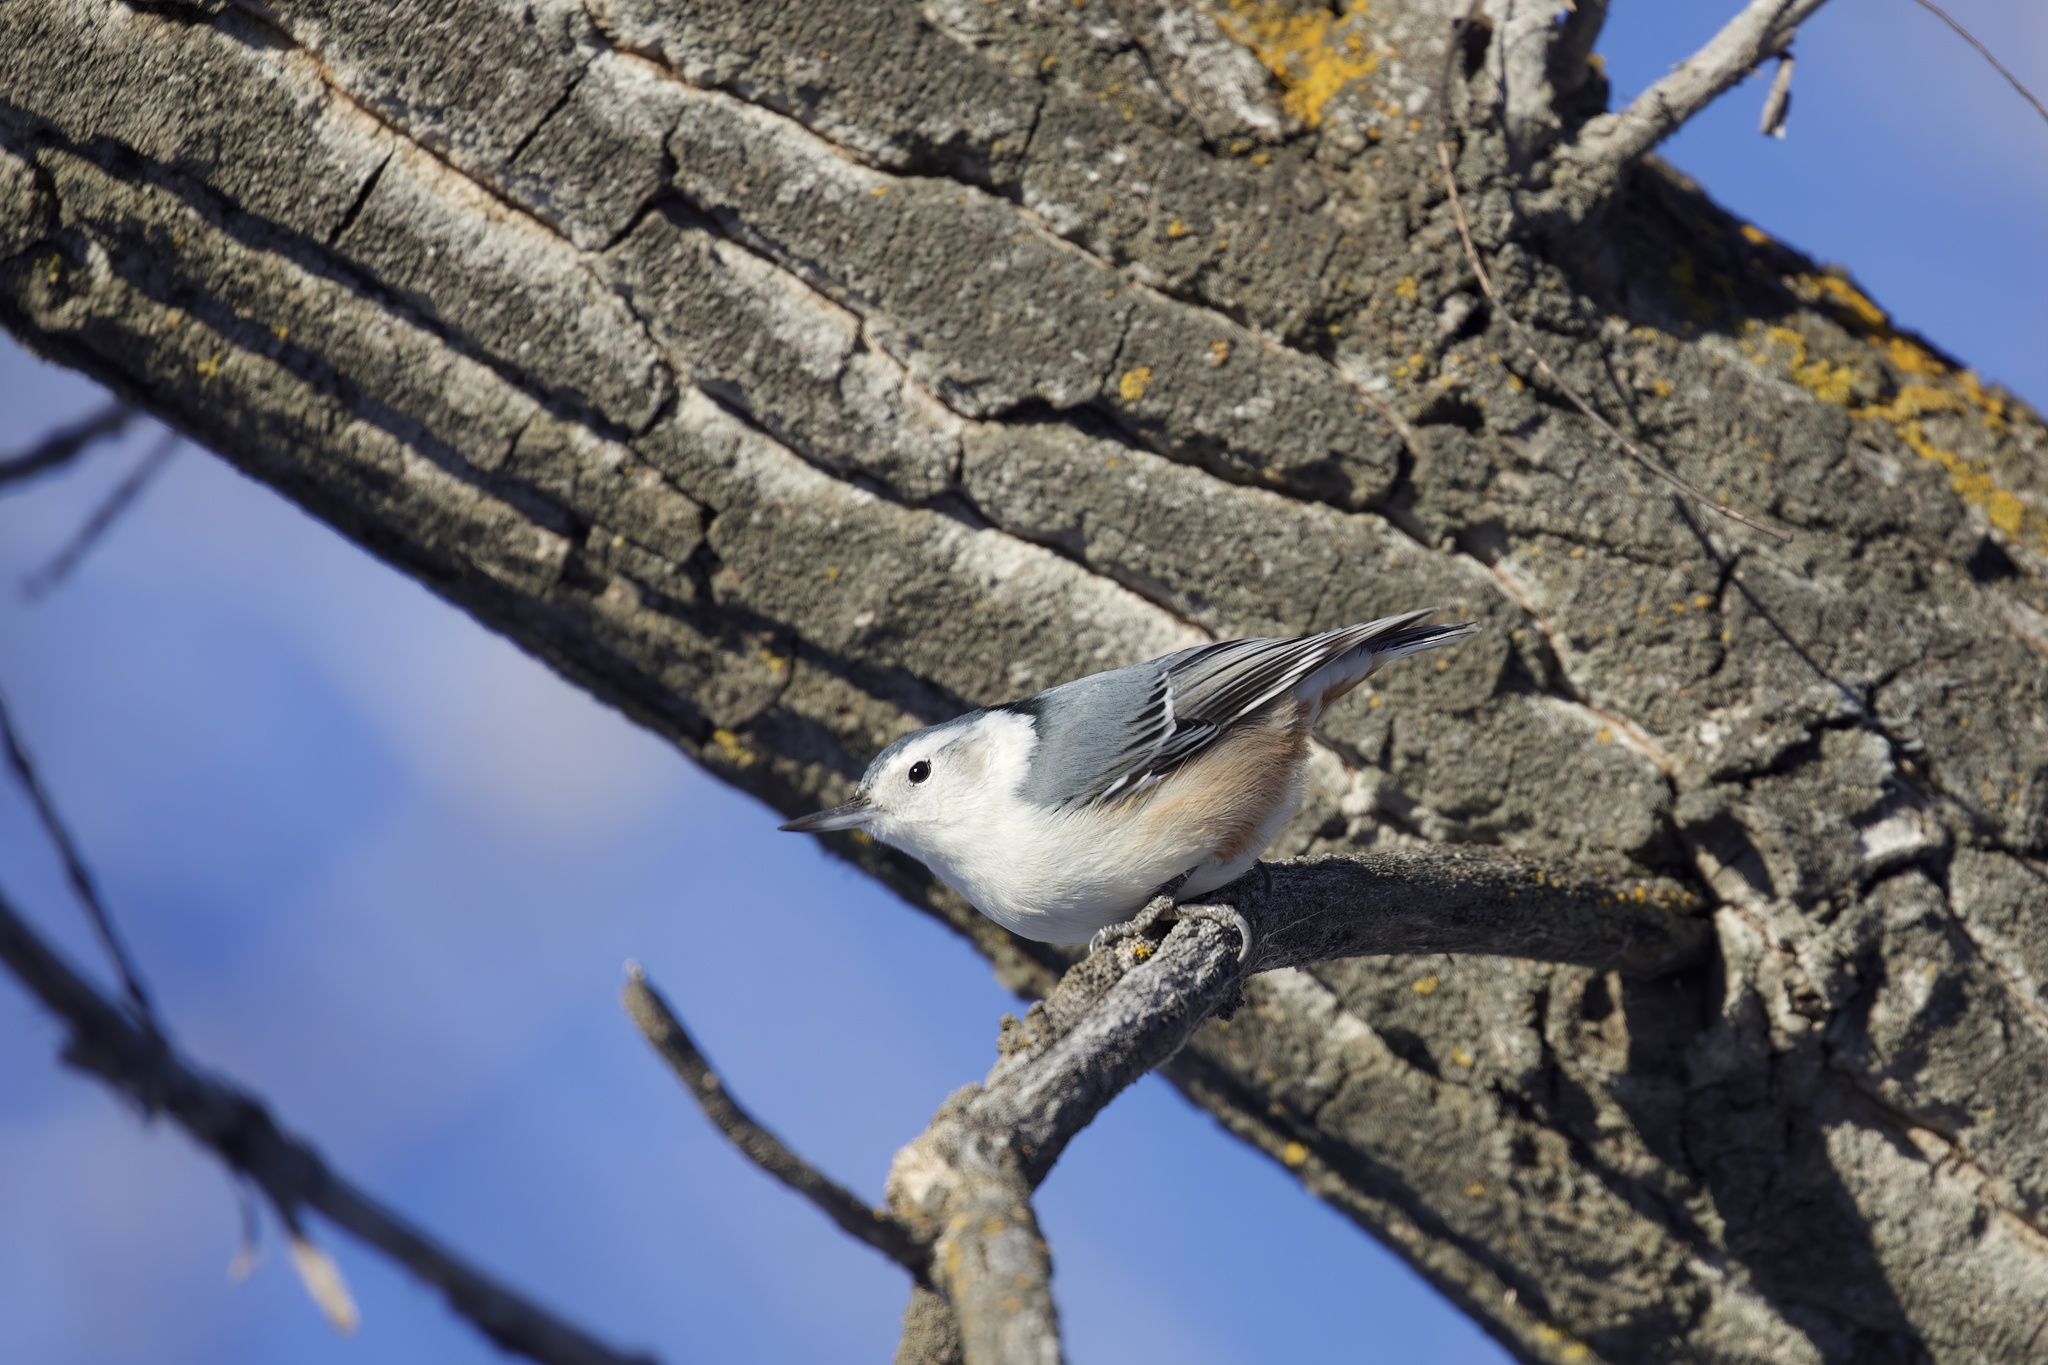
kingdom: Animalia
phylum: Chordata
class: Aves
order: Passeriformes
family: Sittidae
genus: Sitta
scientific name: Sitta carolinensis
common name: White-breasted nuthatch
